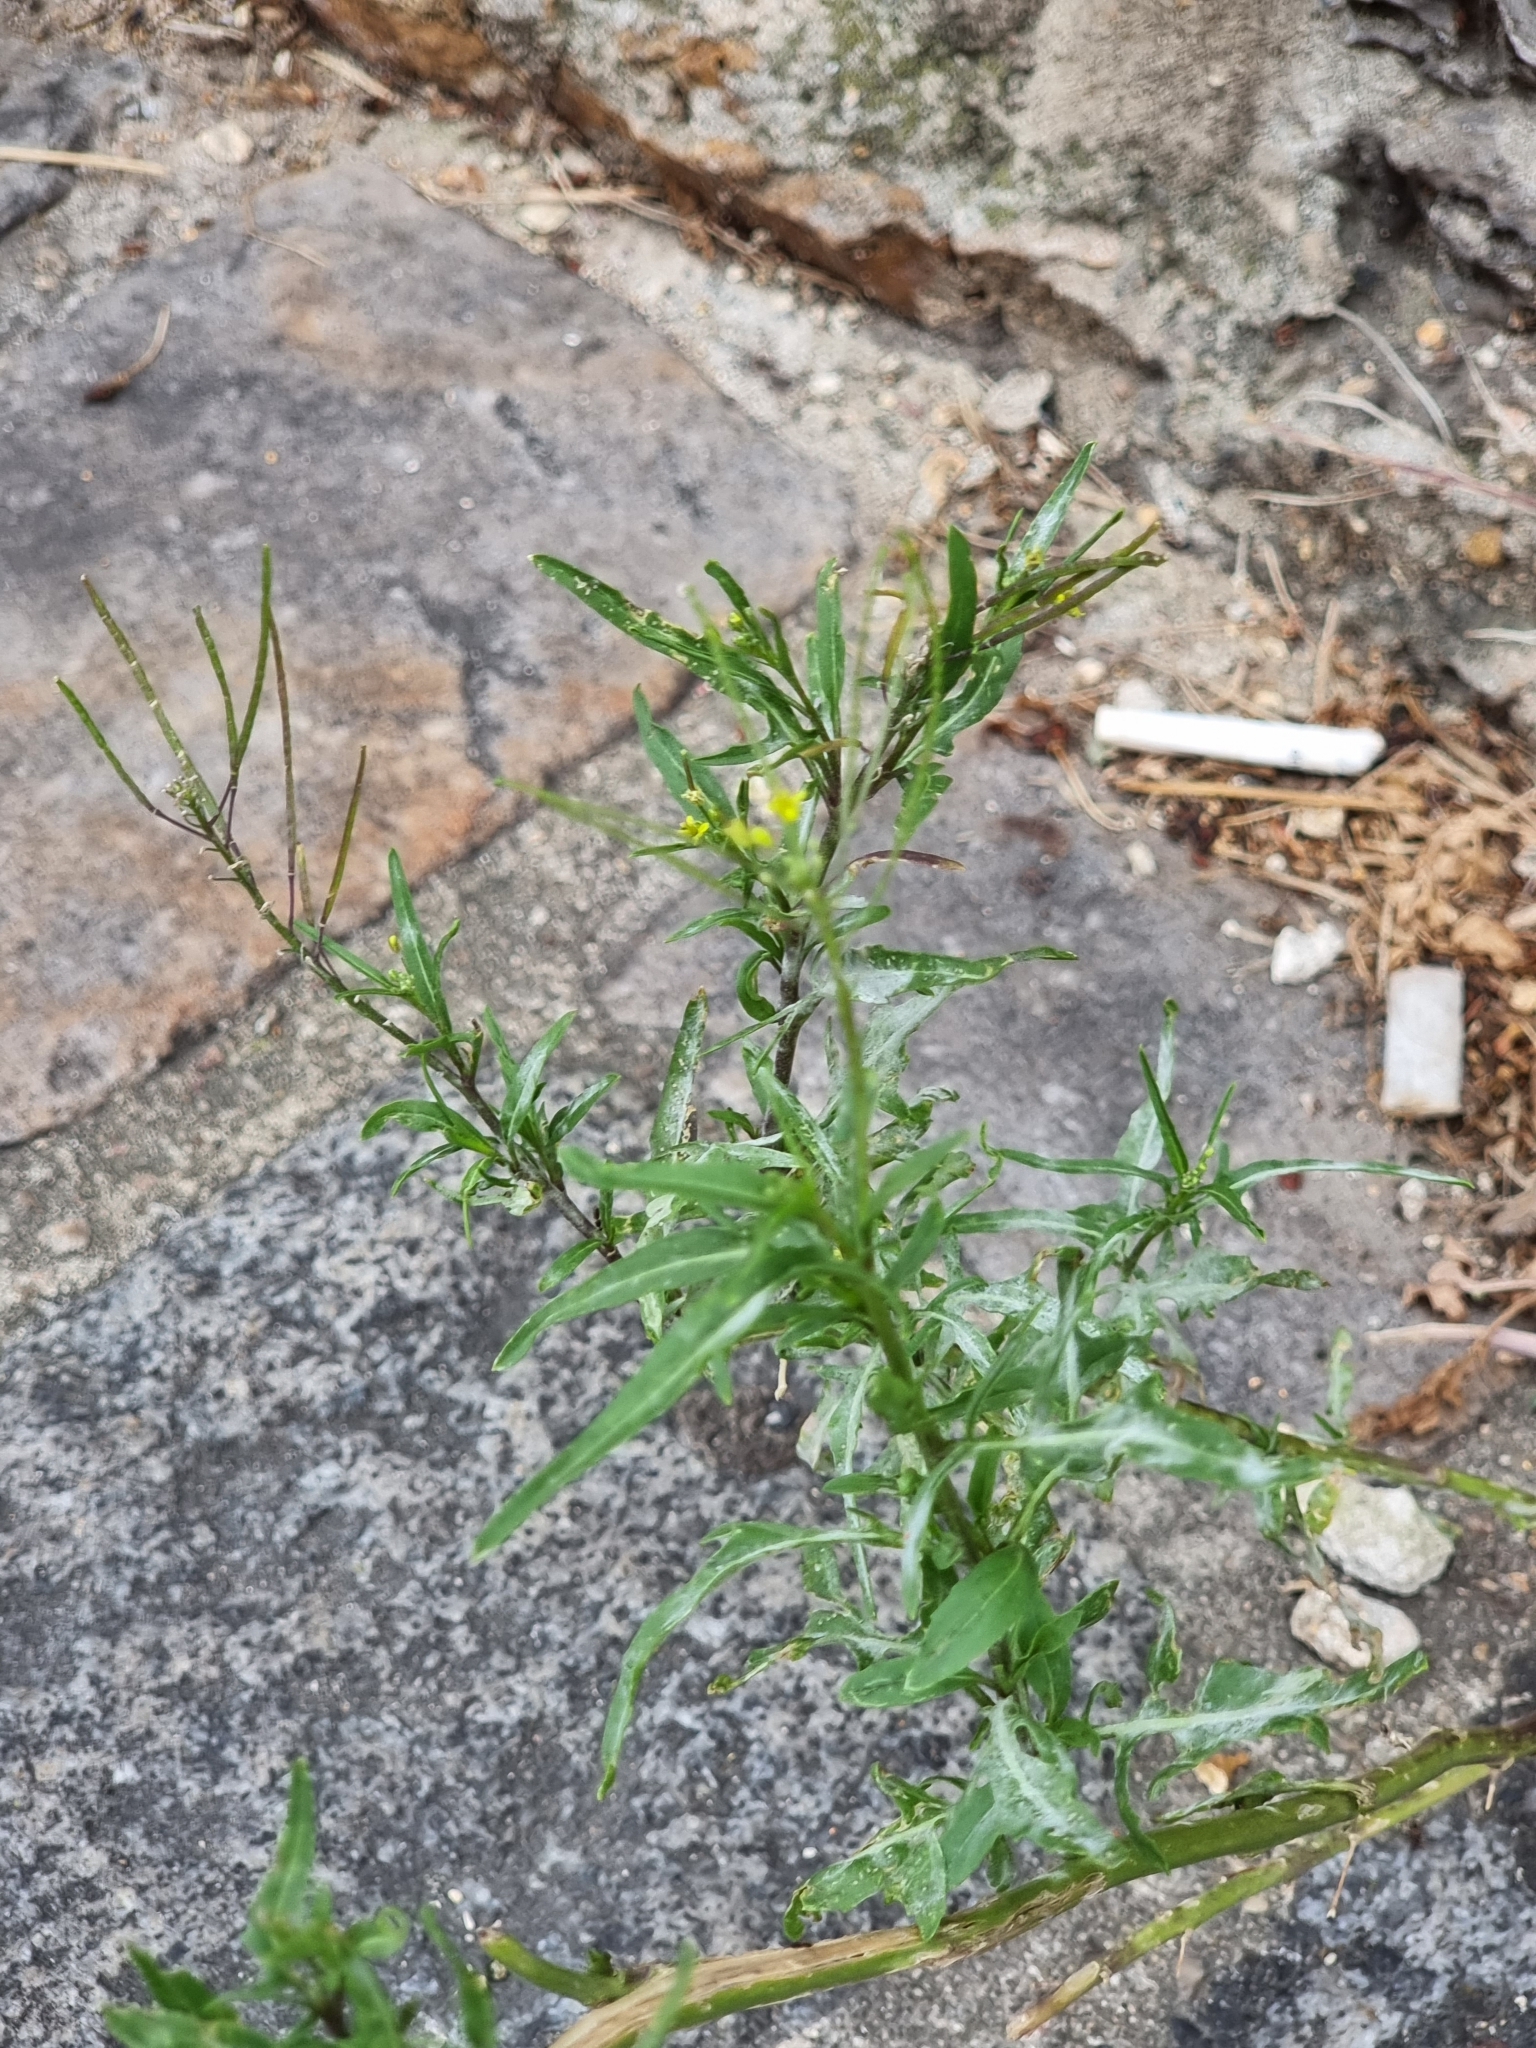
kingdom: Plantae
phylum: Tracheophyta
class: Magnoliopsida
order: Brassicales
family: Brassicaceae
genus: Sisymbrium
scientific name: Sisymbrium irio
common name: London rocket
